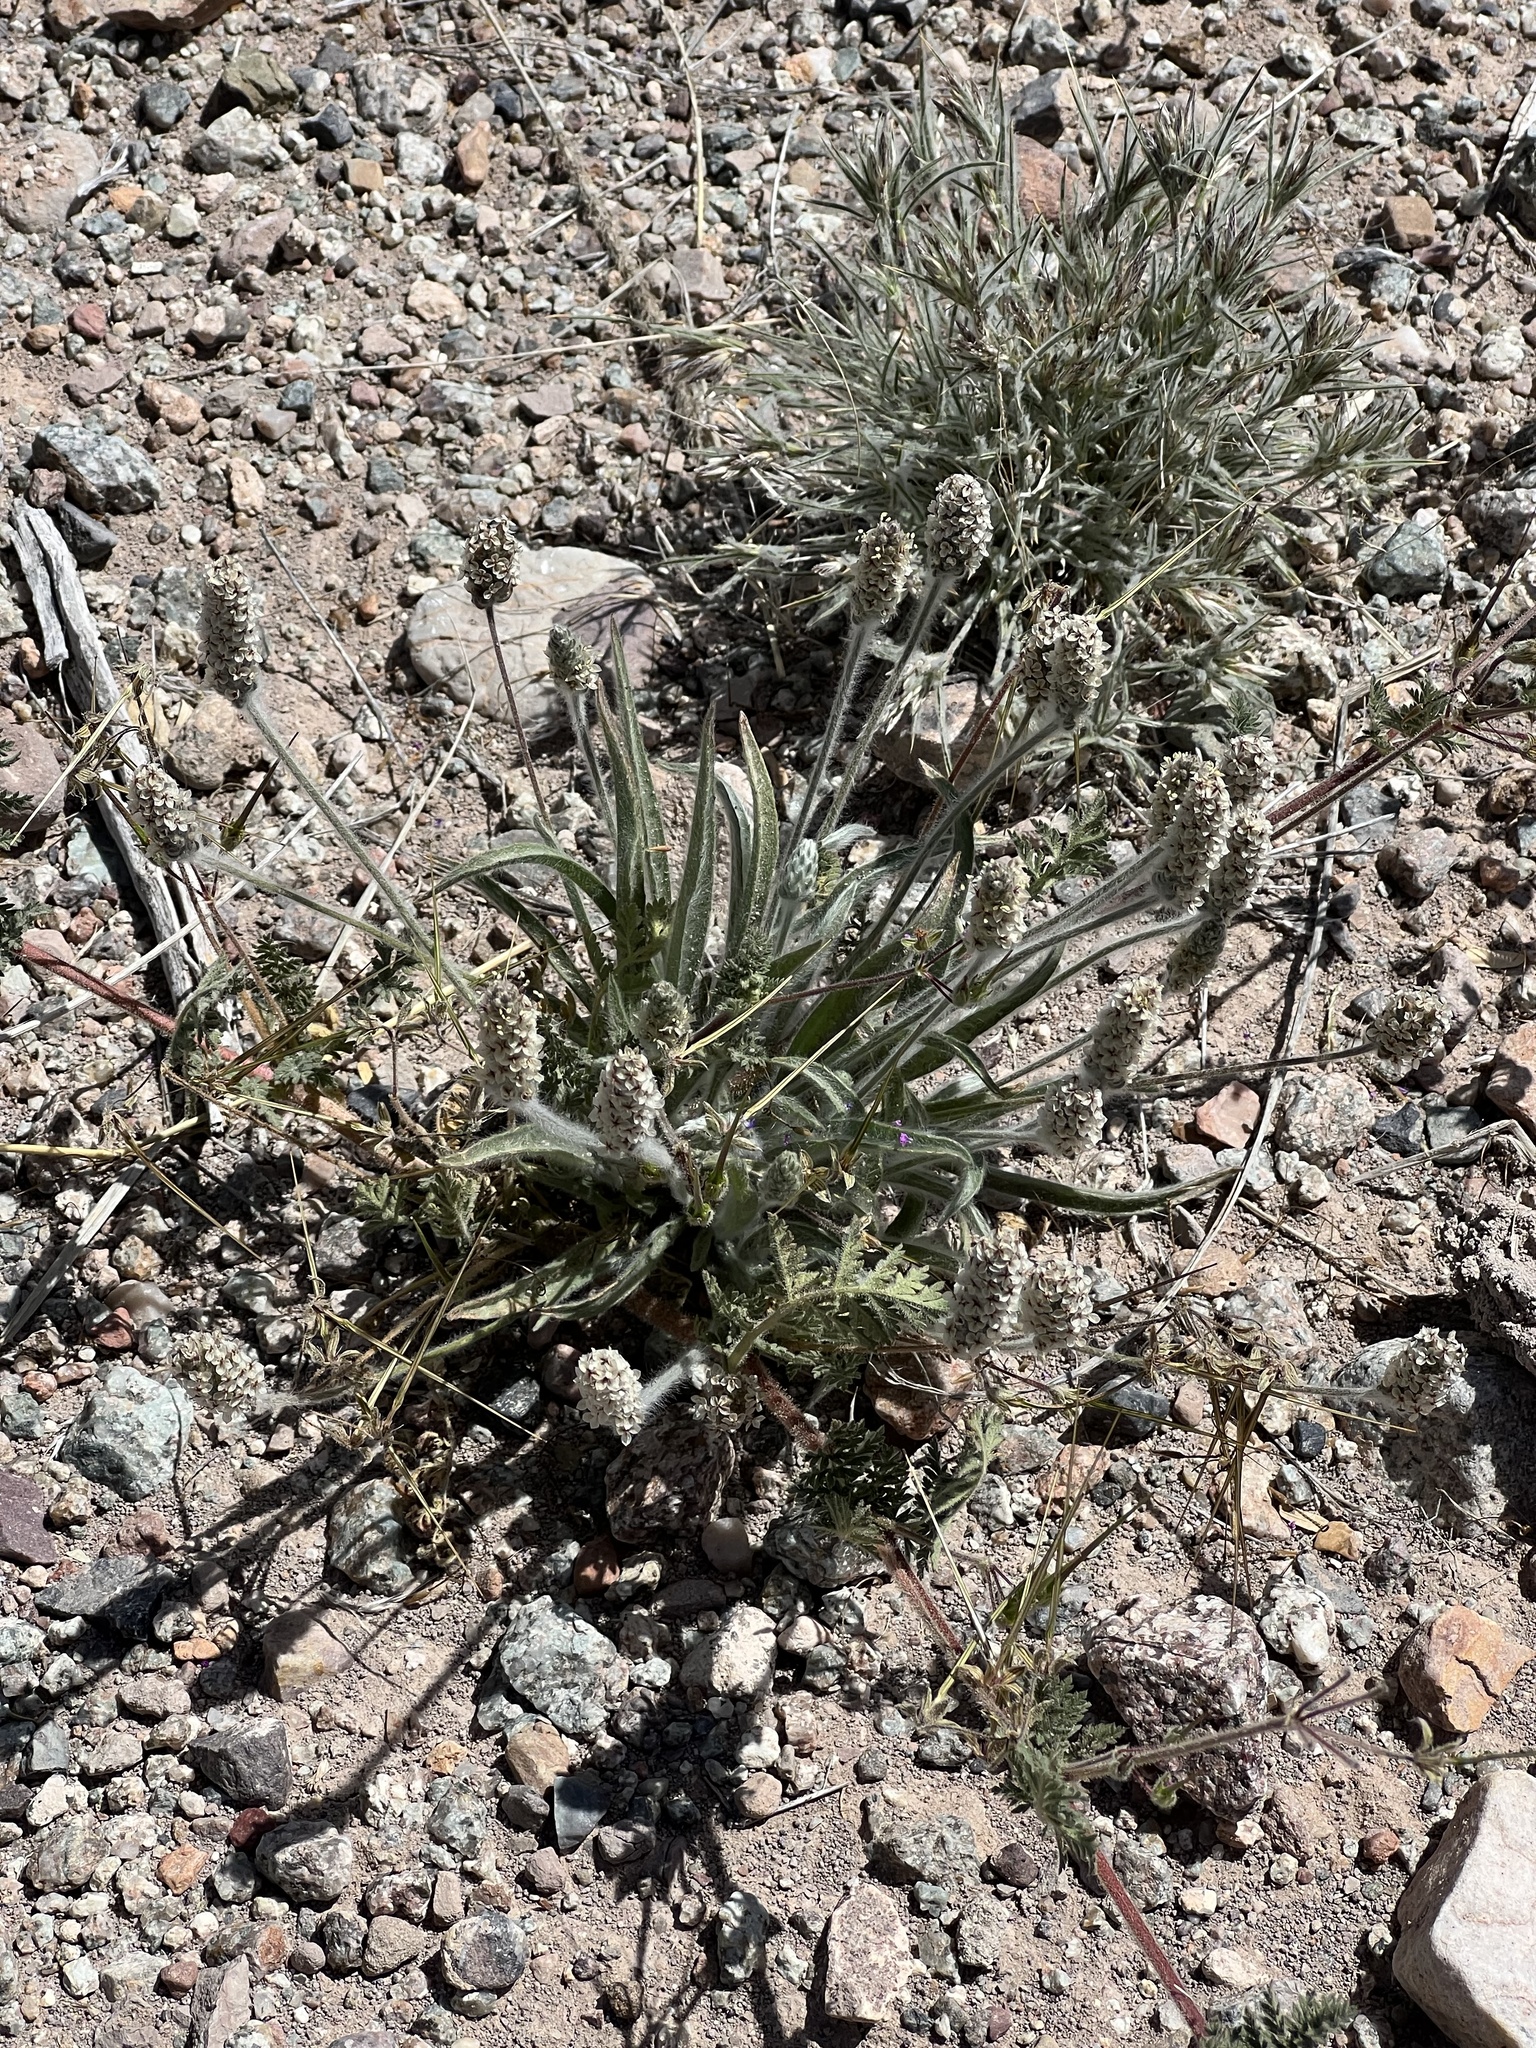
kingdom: Plantae
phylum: Tracheophyta
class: Magnoliopsida
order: Lamiales
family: Plantaginaceae
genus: Plantago
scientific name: Plantago ovata
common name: Blond plantain
